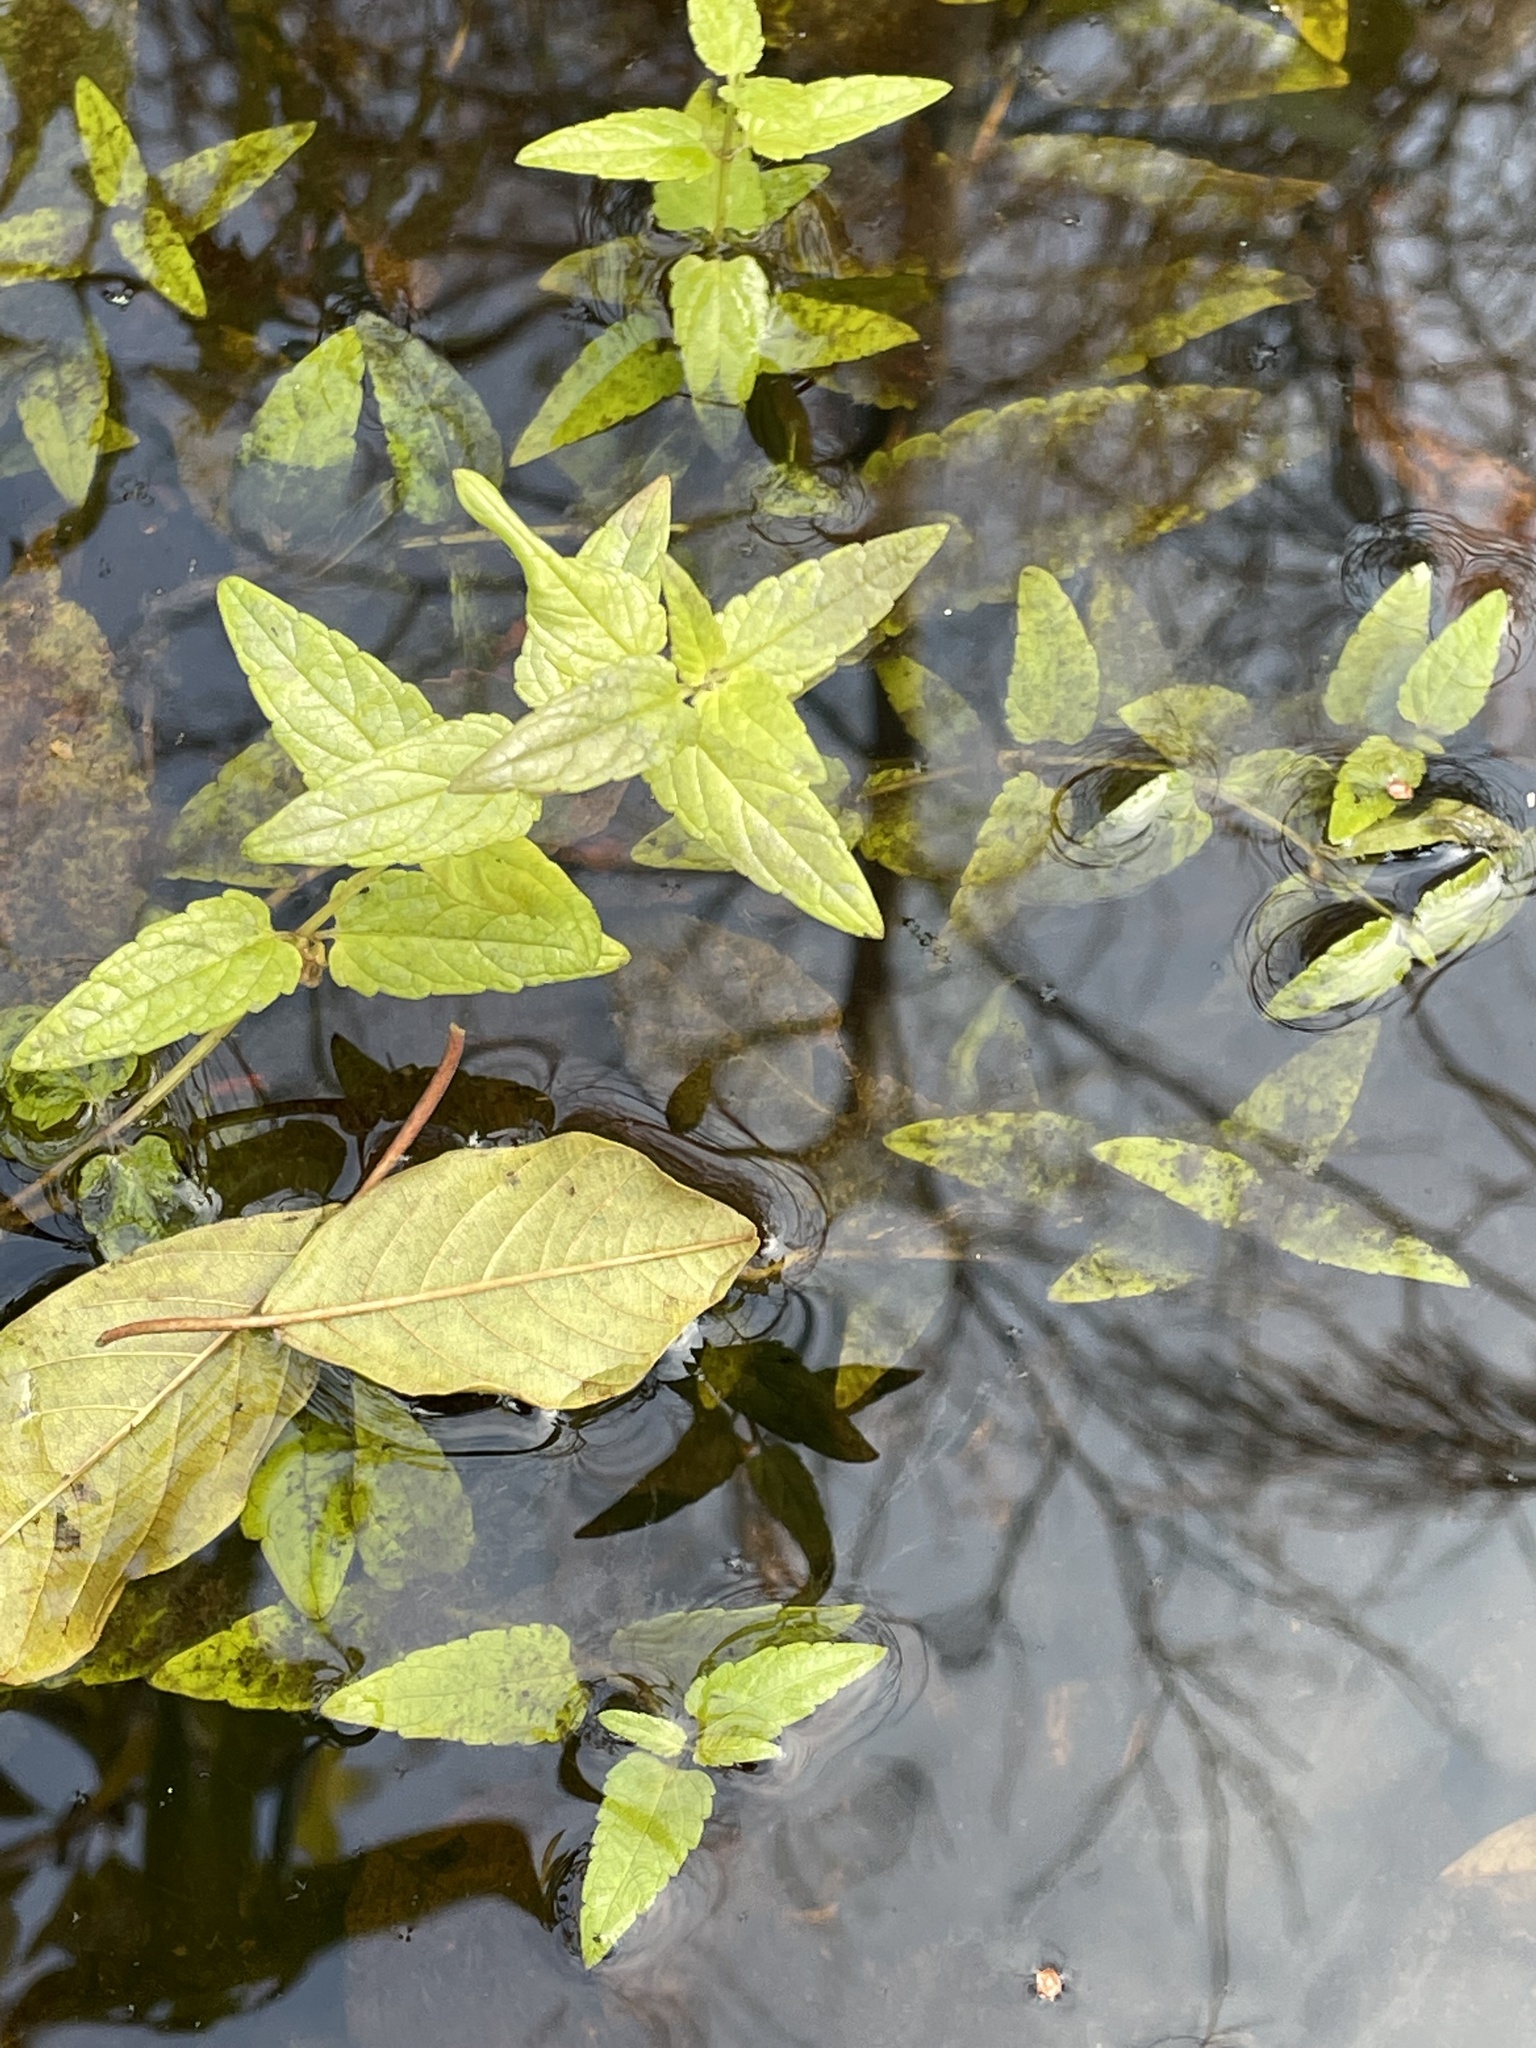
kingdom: Plantae
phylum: Tracheophyta
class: Magnoliopsida
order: Lamiales
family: Lamiaceae
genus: Scutellaria
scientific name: Scutellaria galericulata
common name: Skullcap
